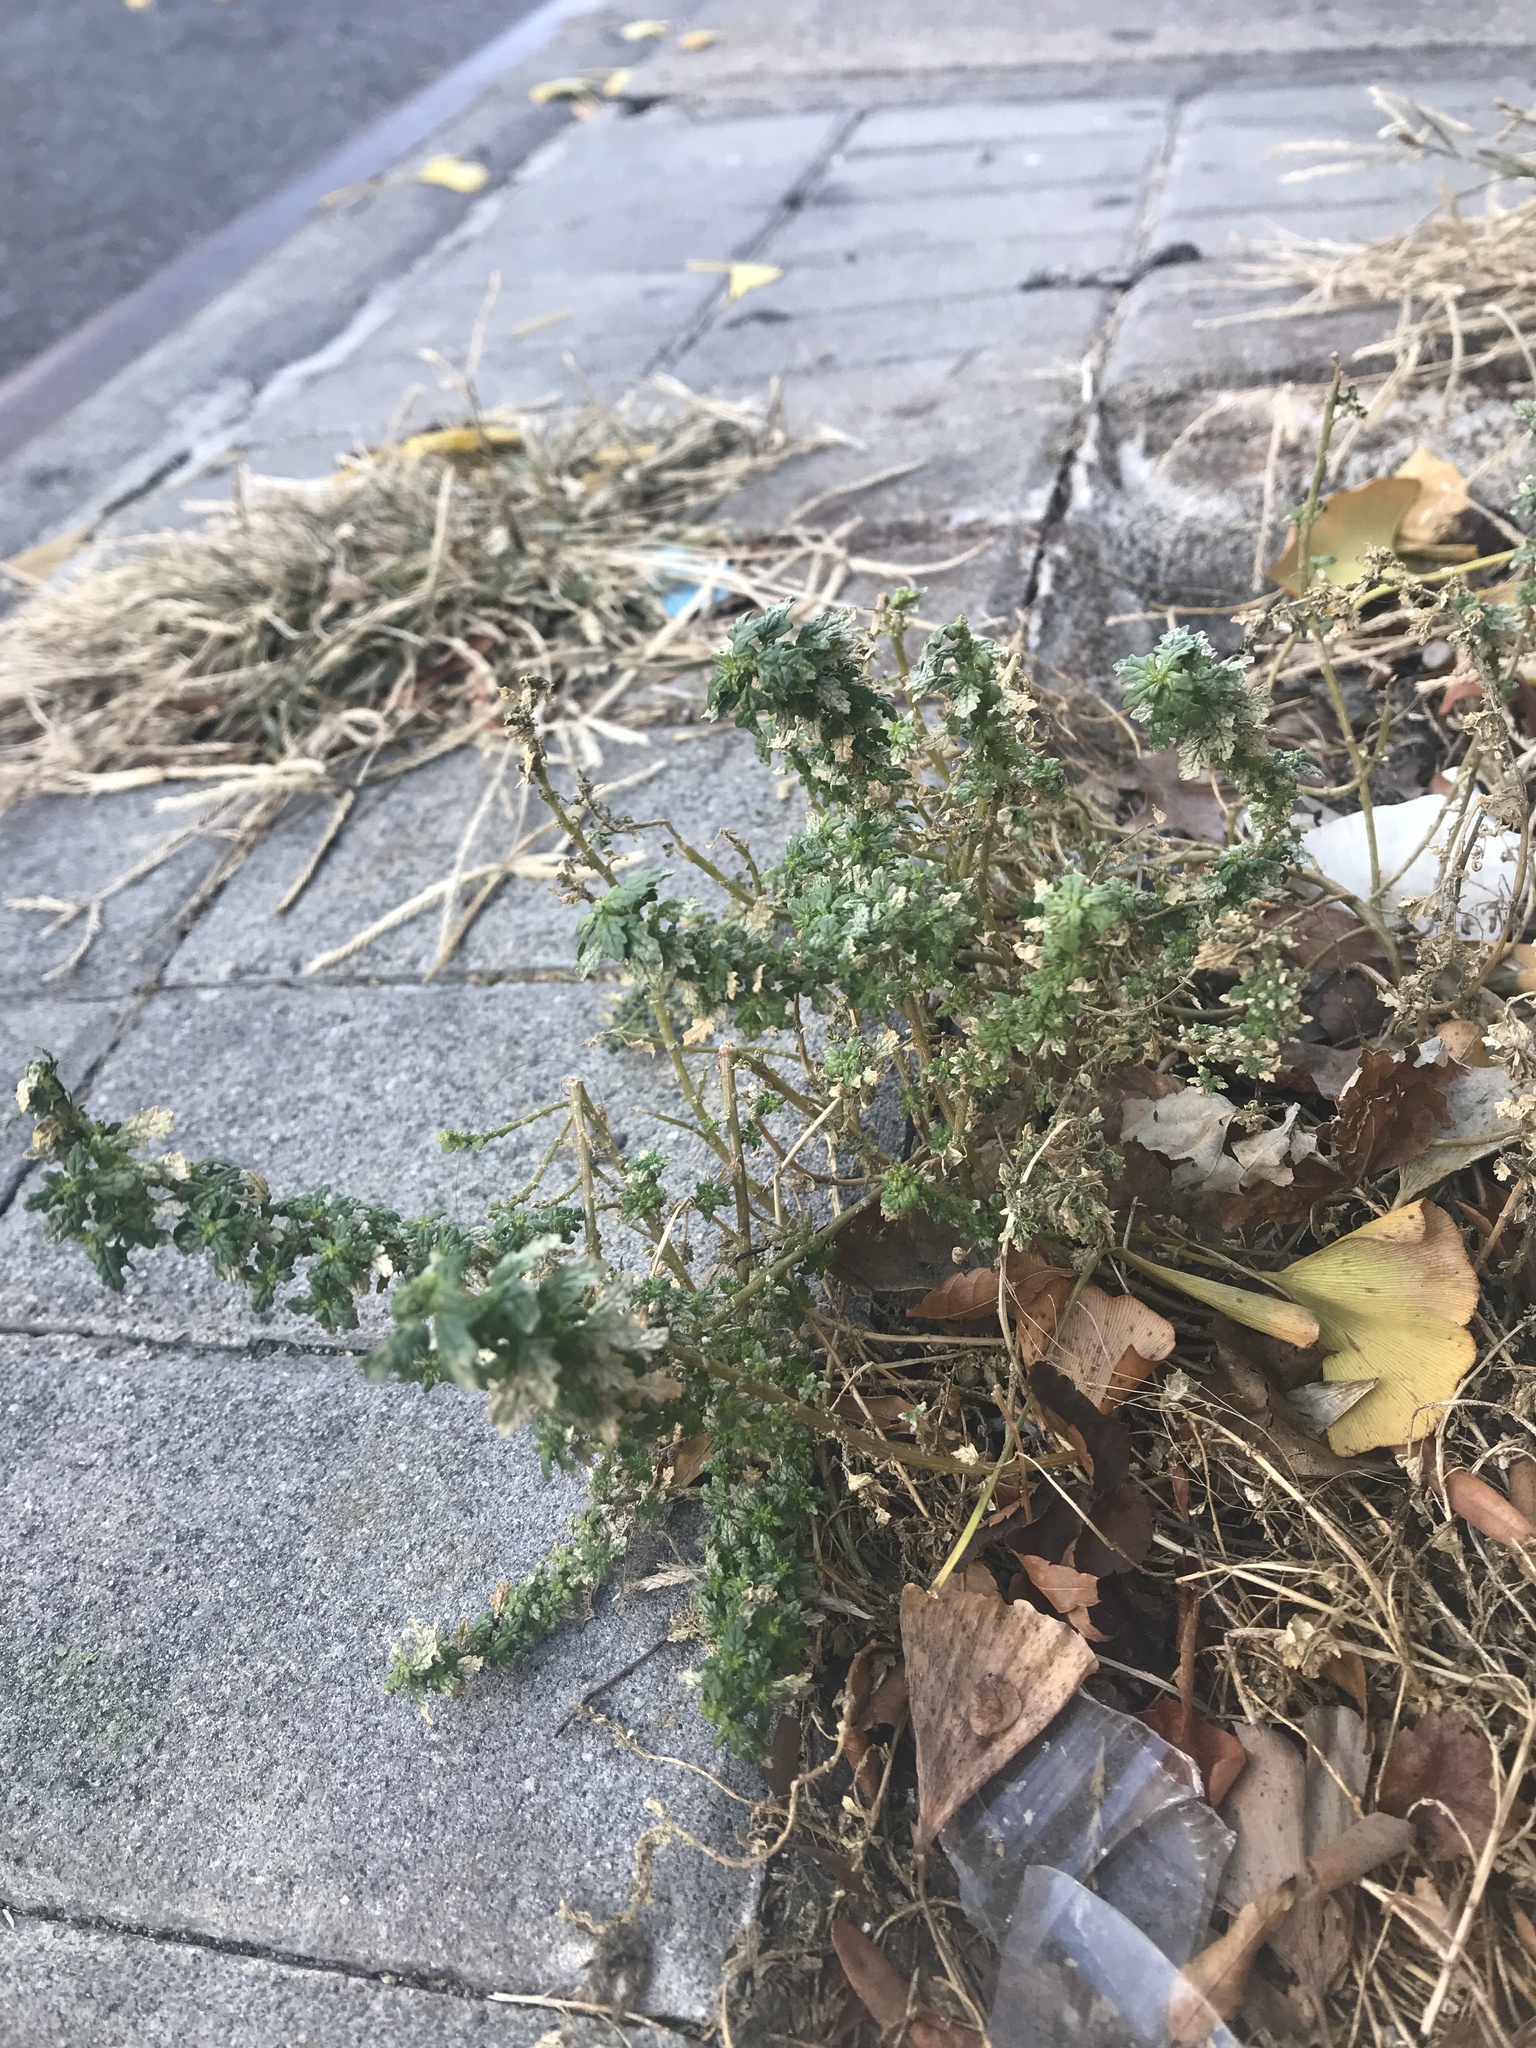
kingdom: Plantae
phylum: Tracheophyta
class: Magnoliopsida
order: Caryophyllales
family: Amaranthaceae
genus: Dysphania
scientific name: Dysphania pumilio
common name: Clammy goosefoot
